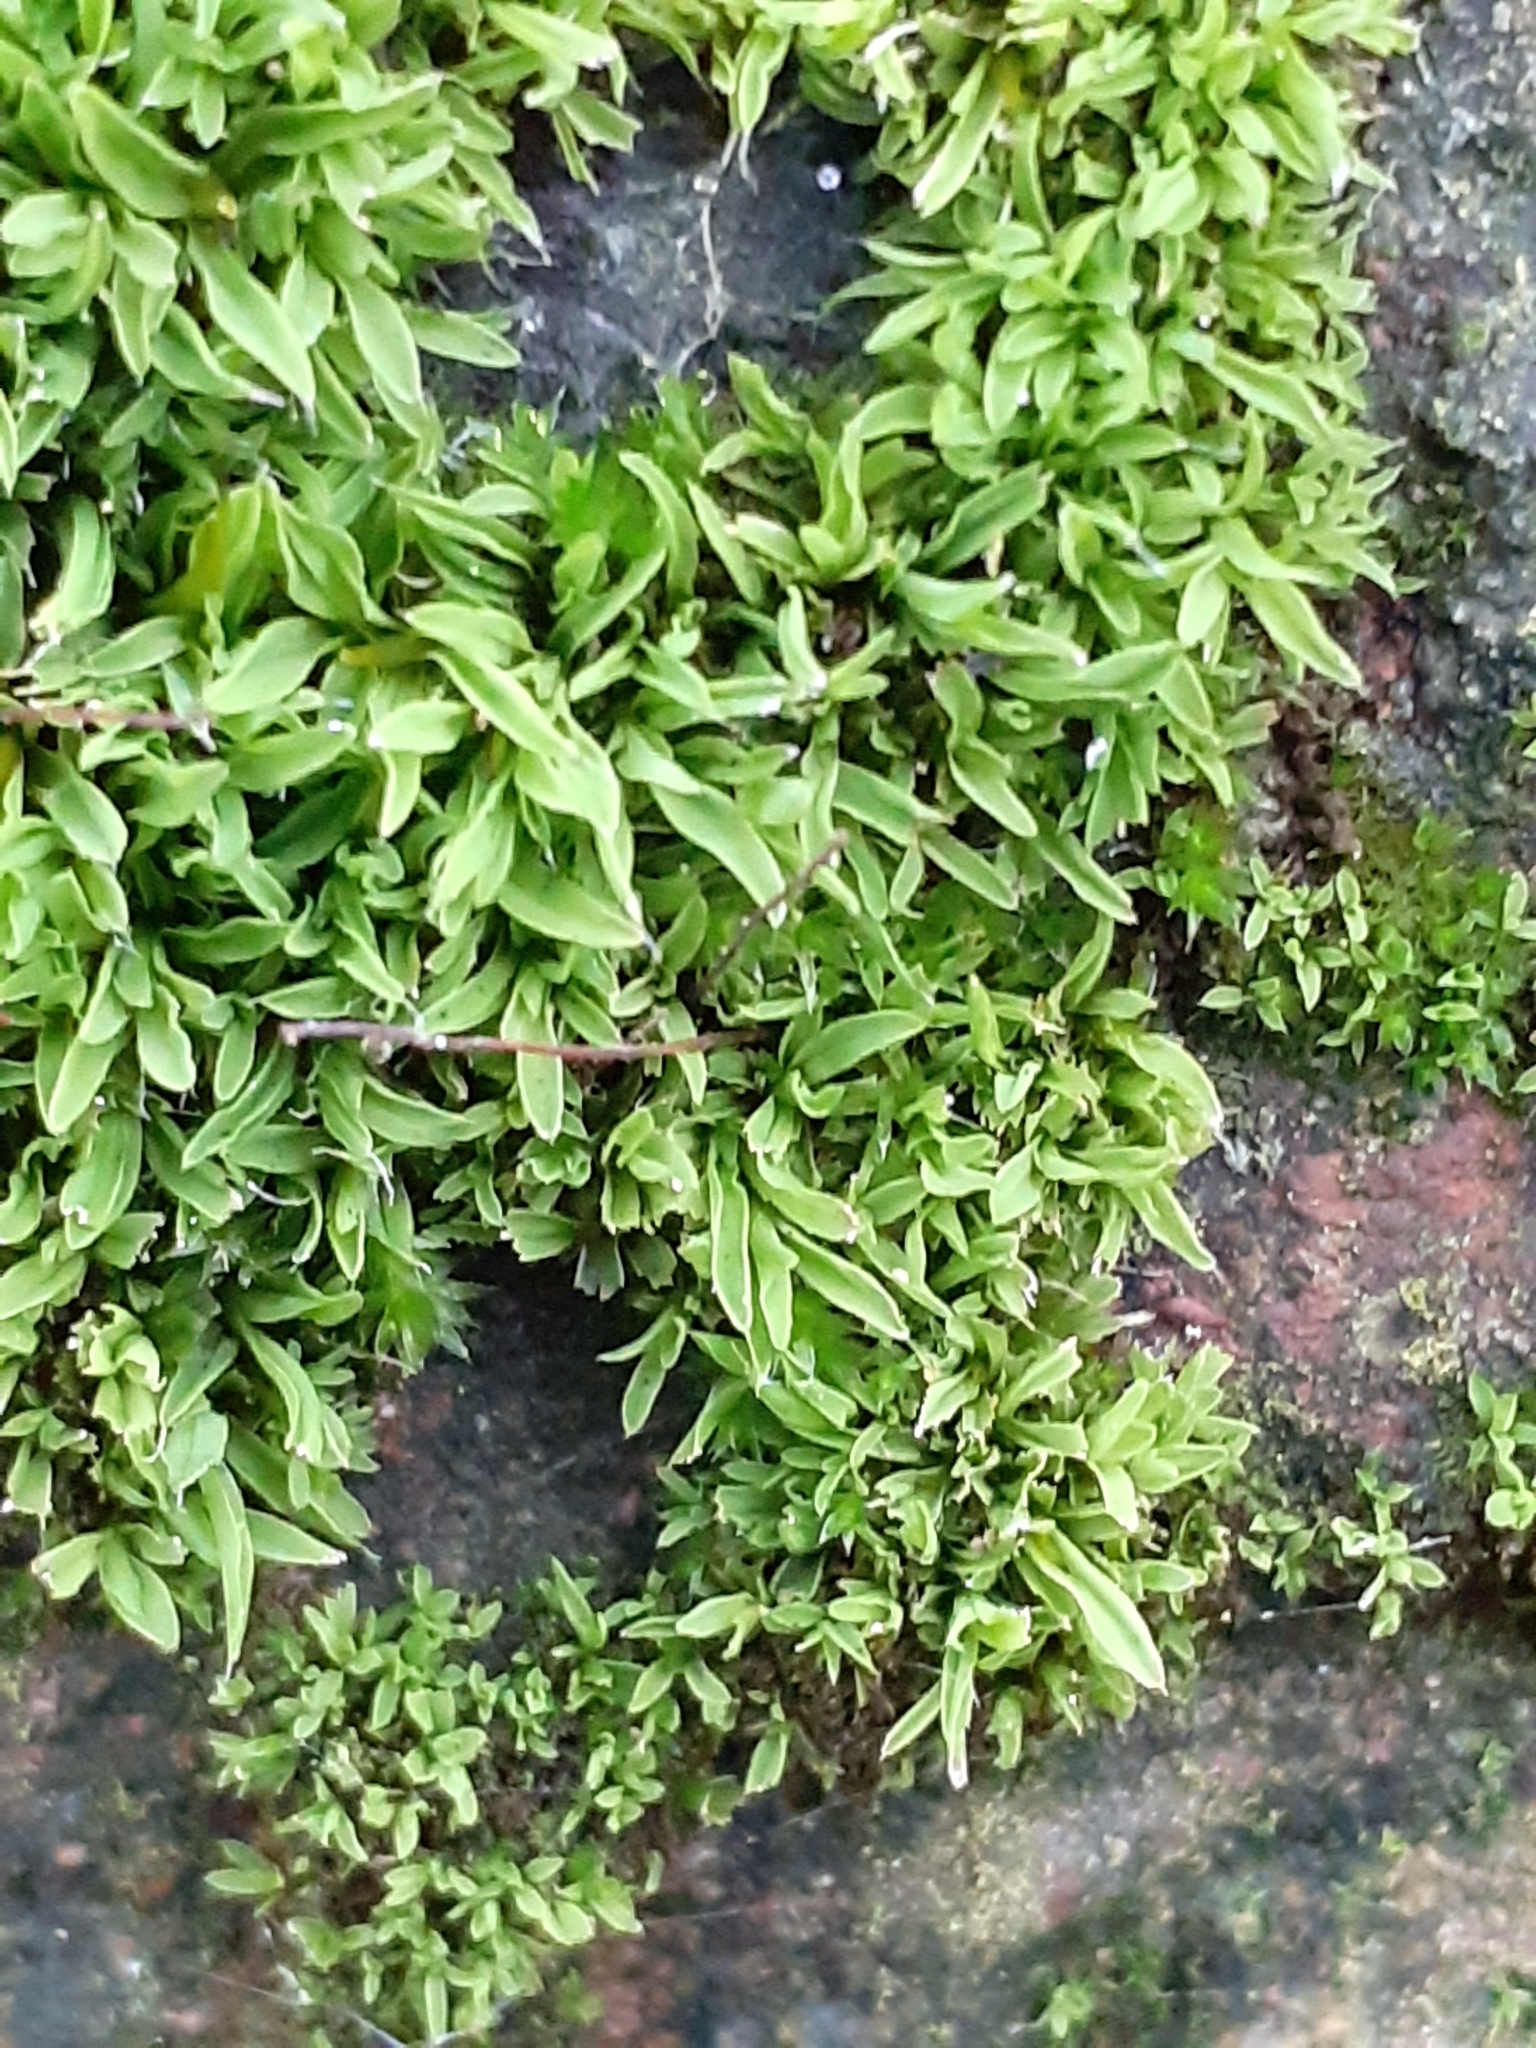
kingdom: Plantae
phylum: Bryophyta
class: Bryopsida
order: Pottiales
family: Pottiaceae
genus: Tortula
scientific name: Tortula muralis
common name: Wall screw-moss
